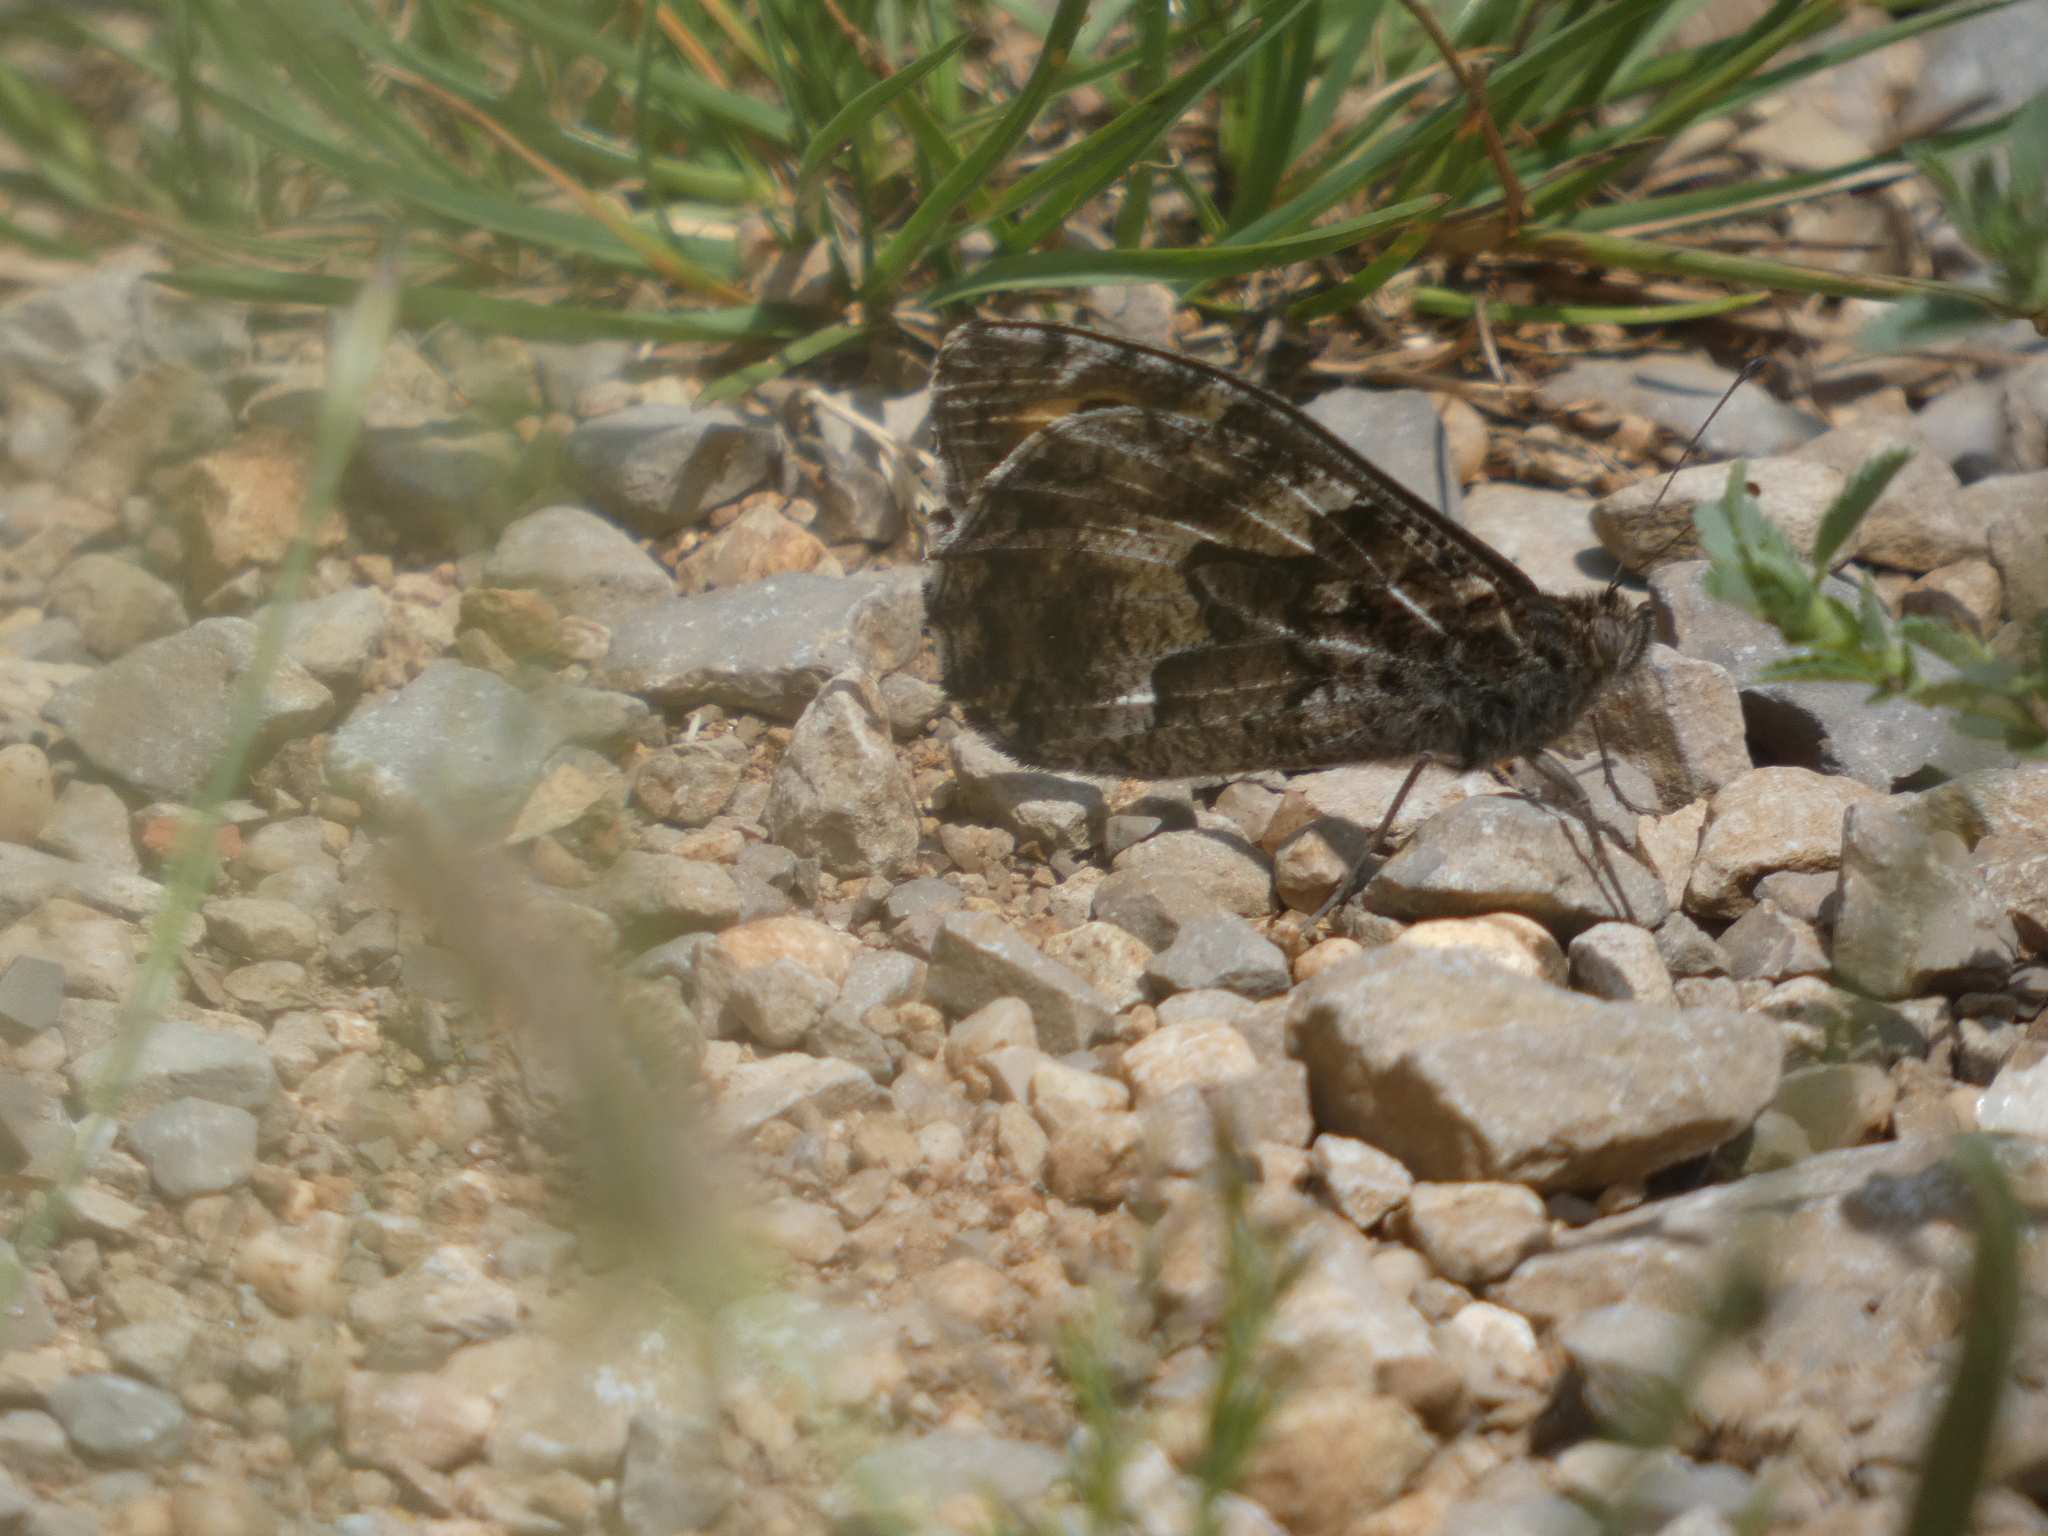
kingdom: Animalia
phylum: Arthropoda
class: Insecta
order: Lepidoptera
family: Nymphalidae
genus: Hipparchia
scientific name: Hipparchia semele
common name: Grayling
